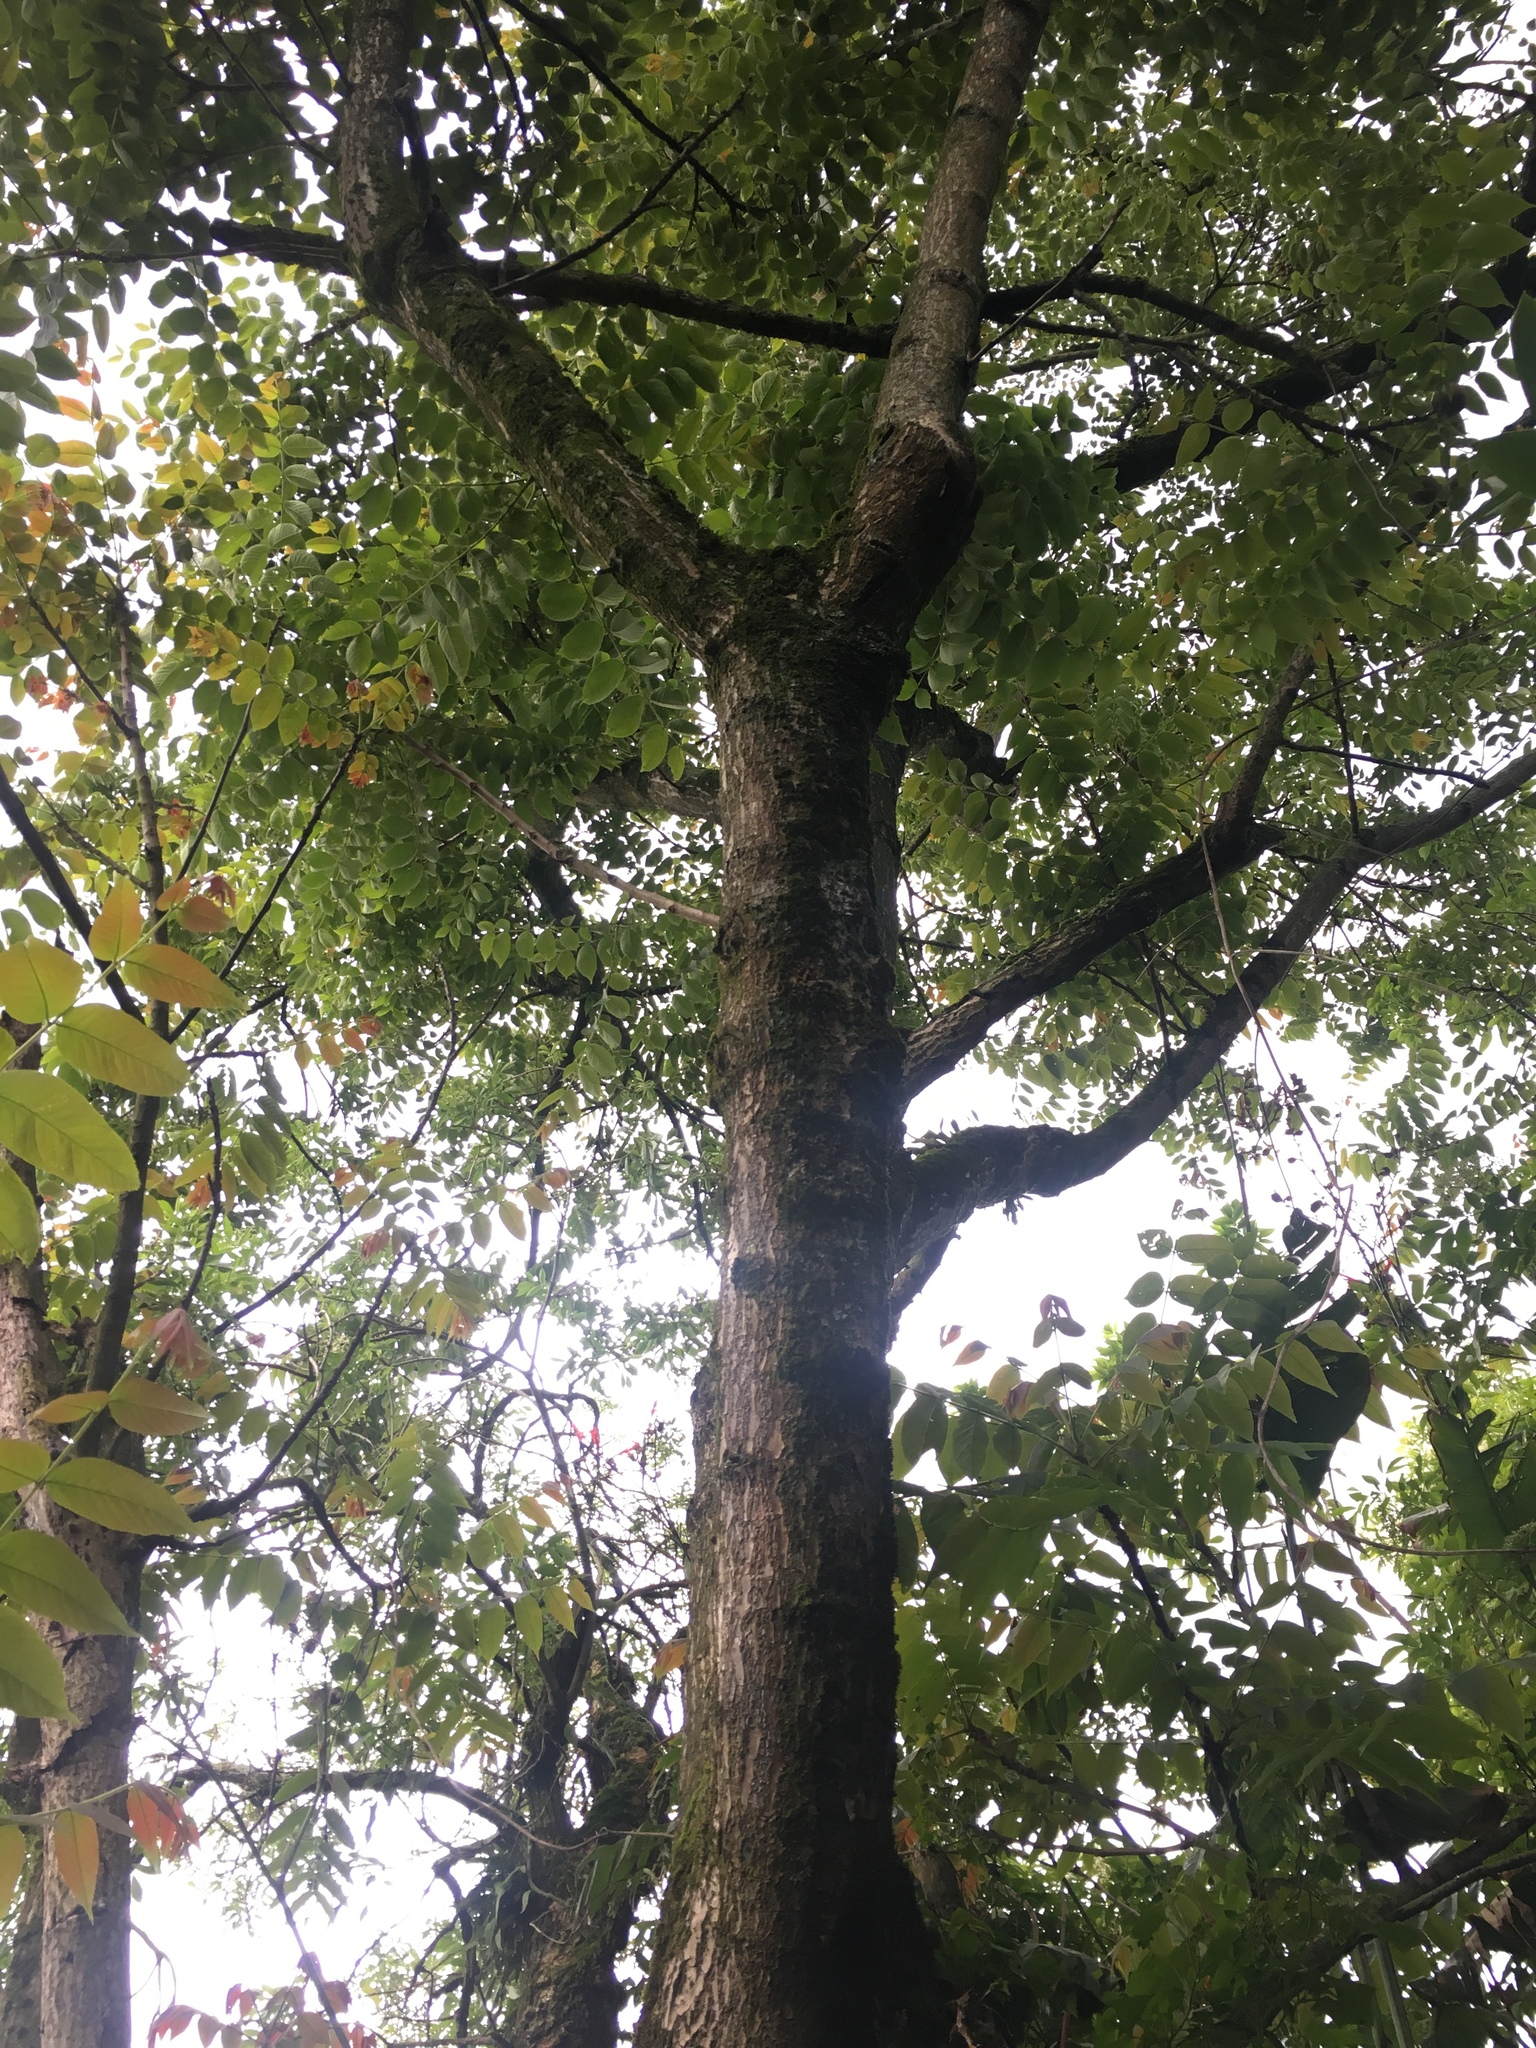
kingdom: Plantae
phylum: Tracheophyta
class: Magnoliopsida
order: Fagales
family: Juglandaceae
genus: Juglans
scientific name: Juglans neotropica
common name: Andean walnut
